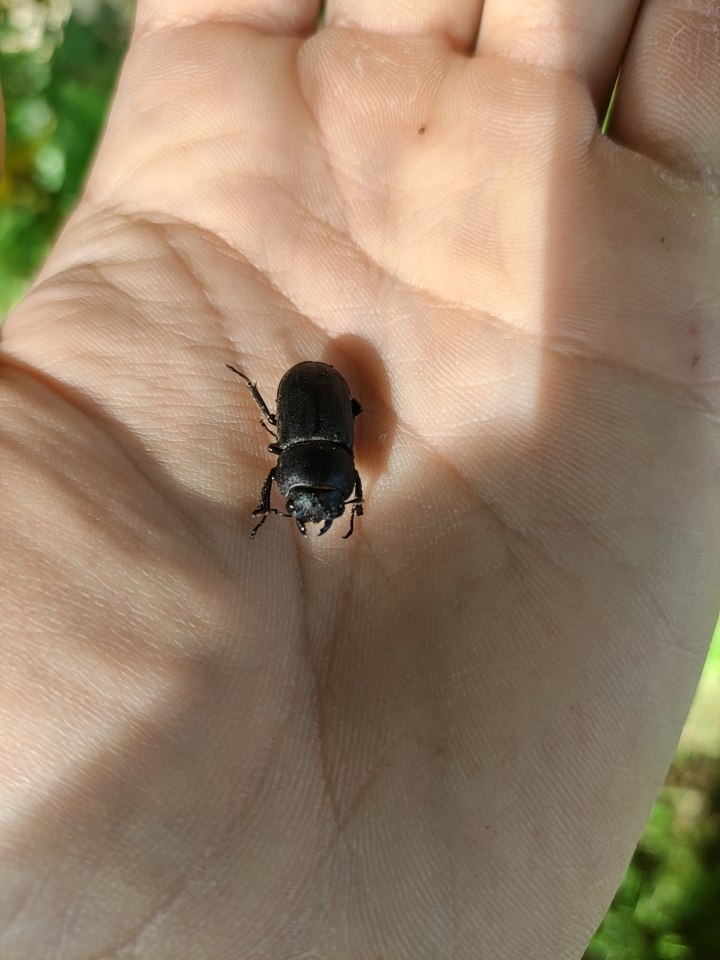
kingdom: Animalia
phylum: Arthropoda
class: Insecta
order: Coleoptera
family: Lucanidae
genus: Dorcus
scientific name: Dorcus parallelipipedus
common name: Lesser stag beetle
